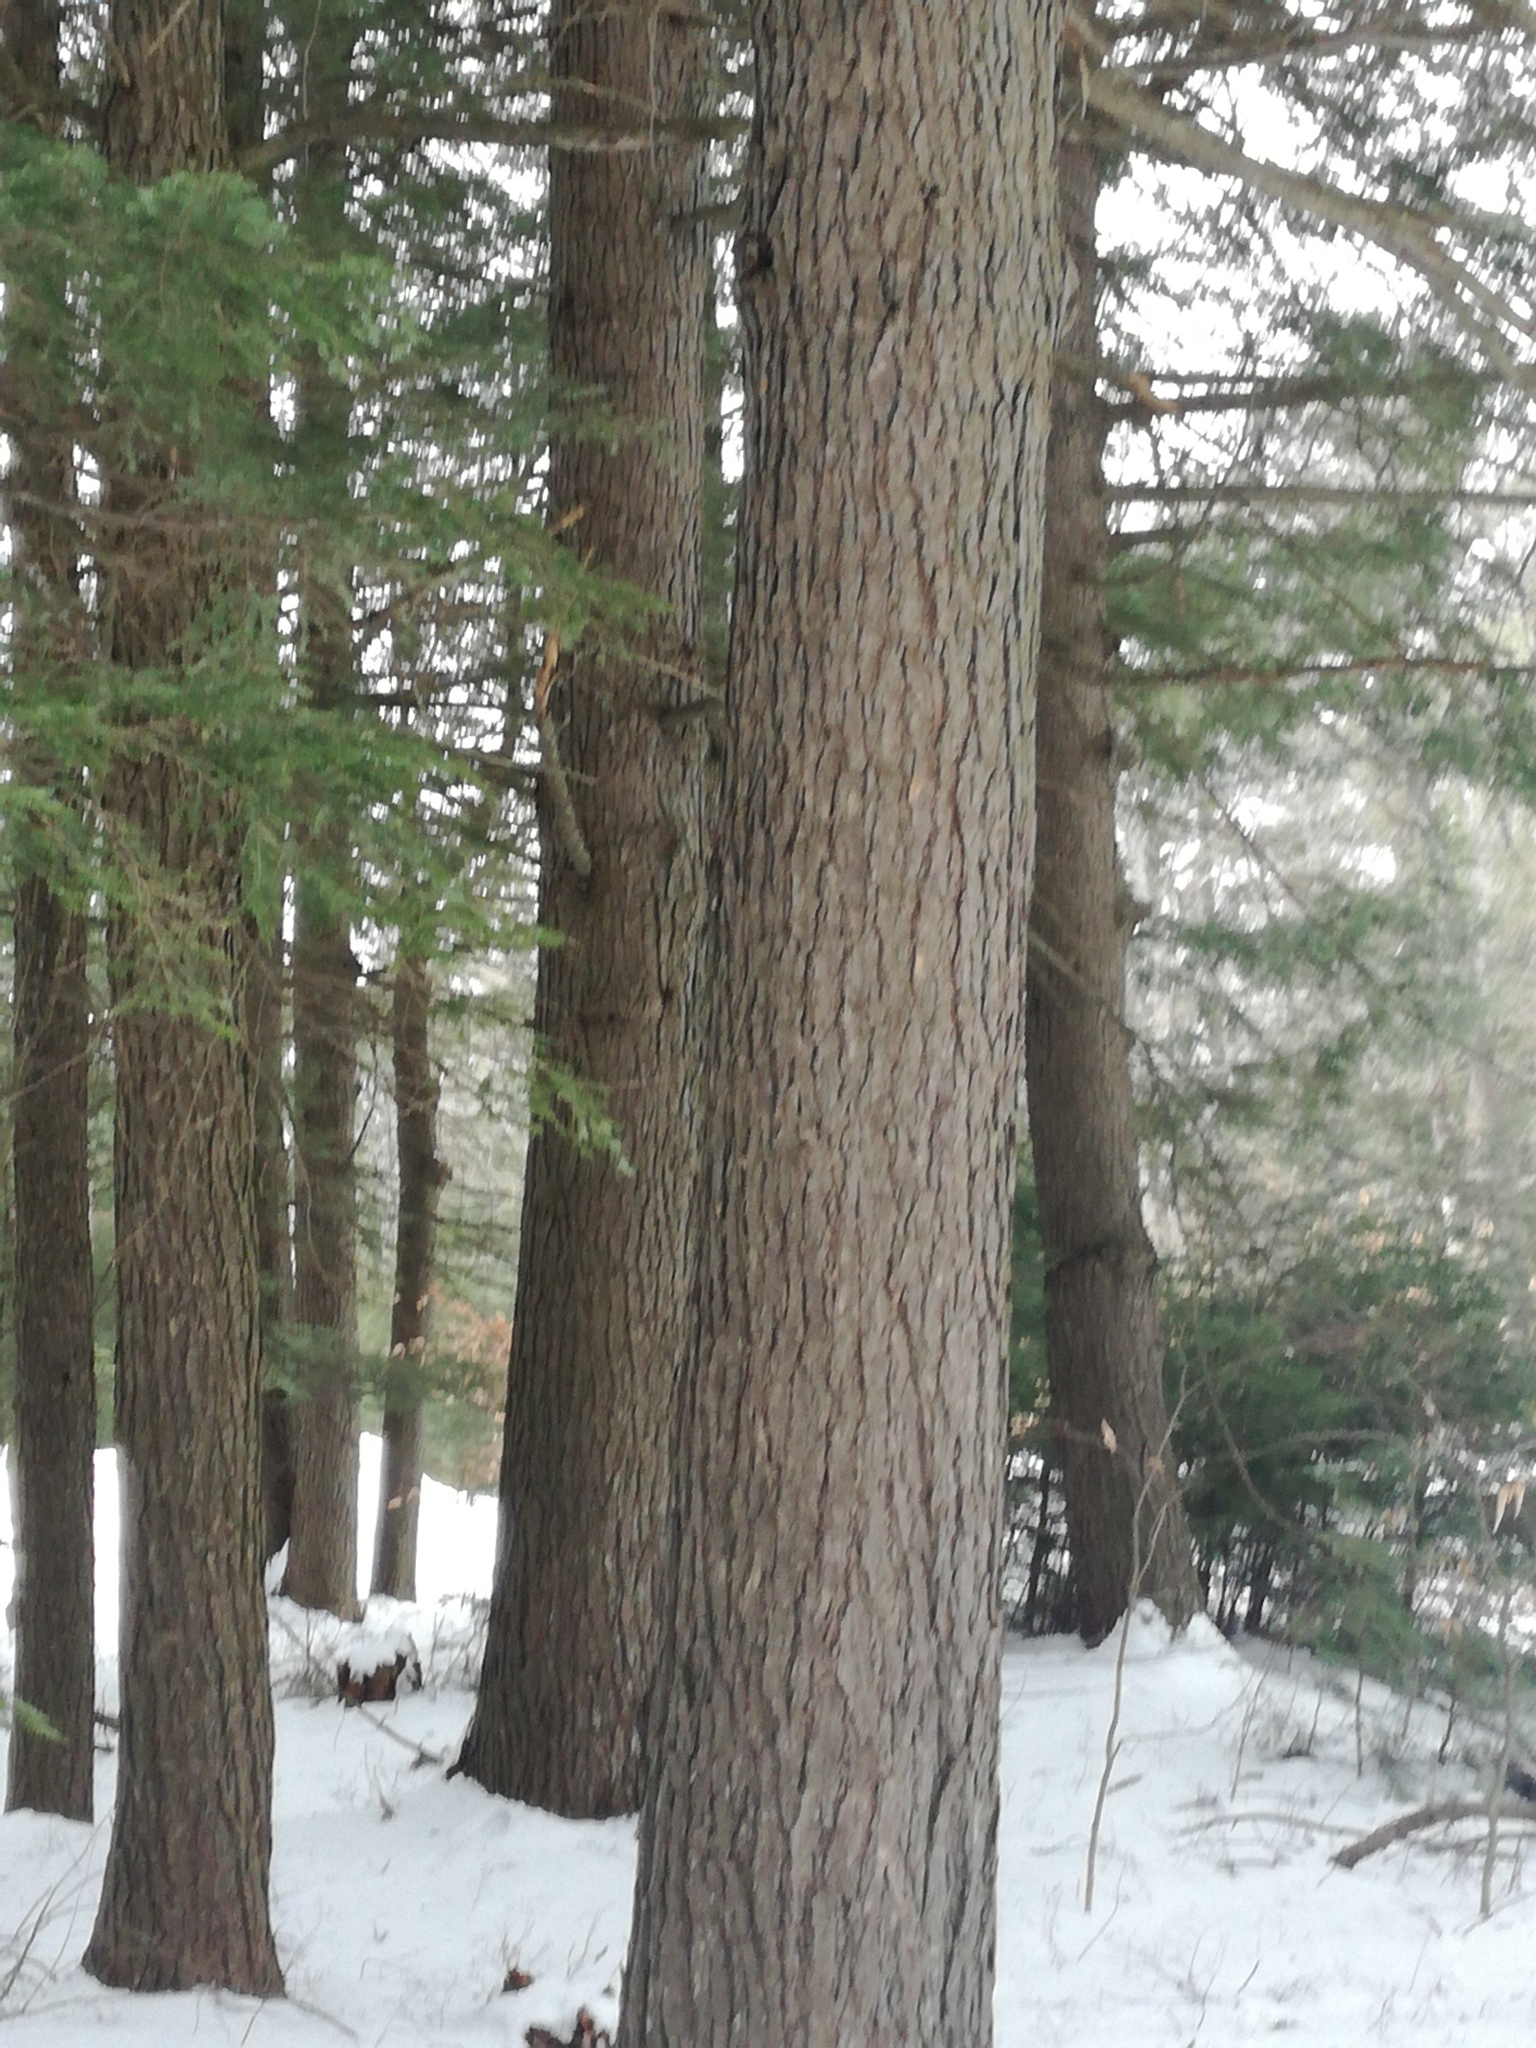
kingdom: Plantae
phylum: Tracheophyta
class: Pinopsida
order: Pinales
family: Pinaceae
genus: Tsuga
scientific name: Tsuga canadensis
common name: Eastern hemlock
